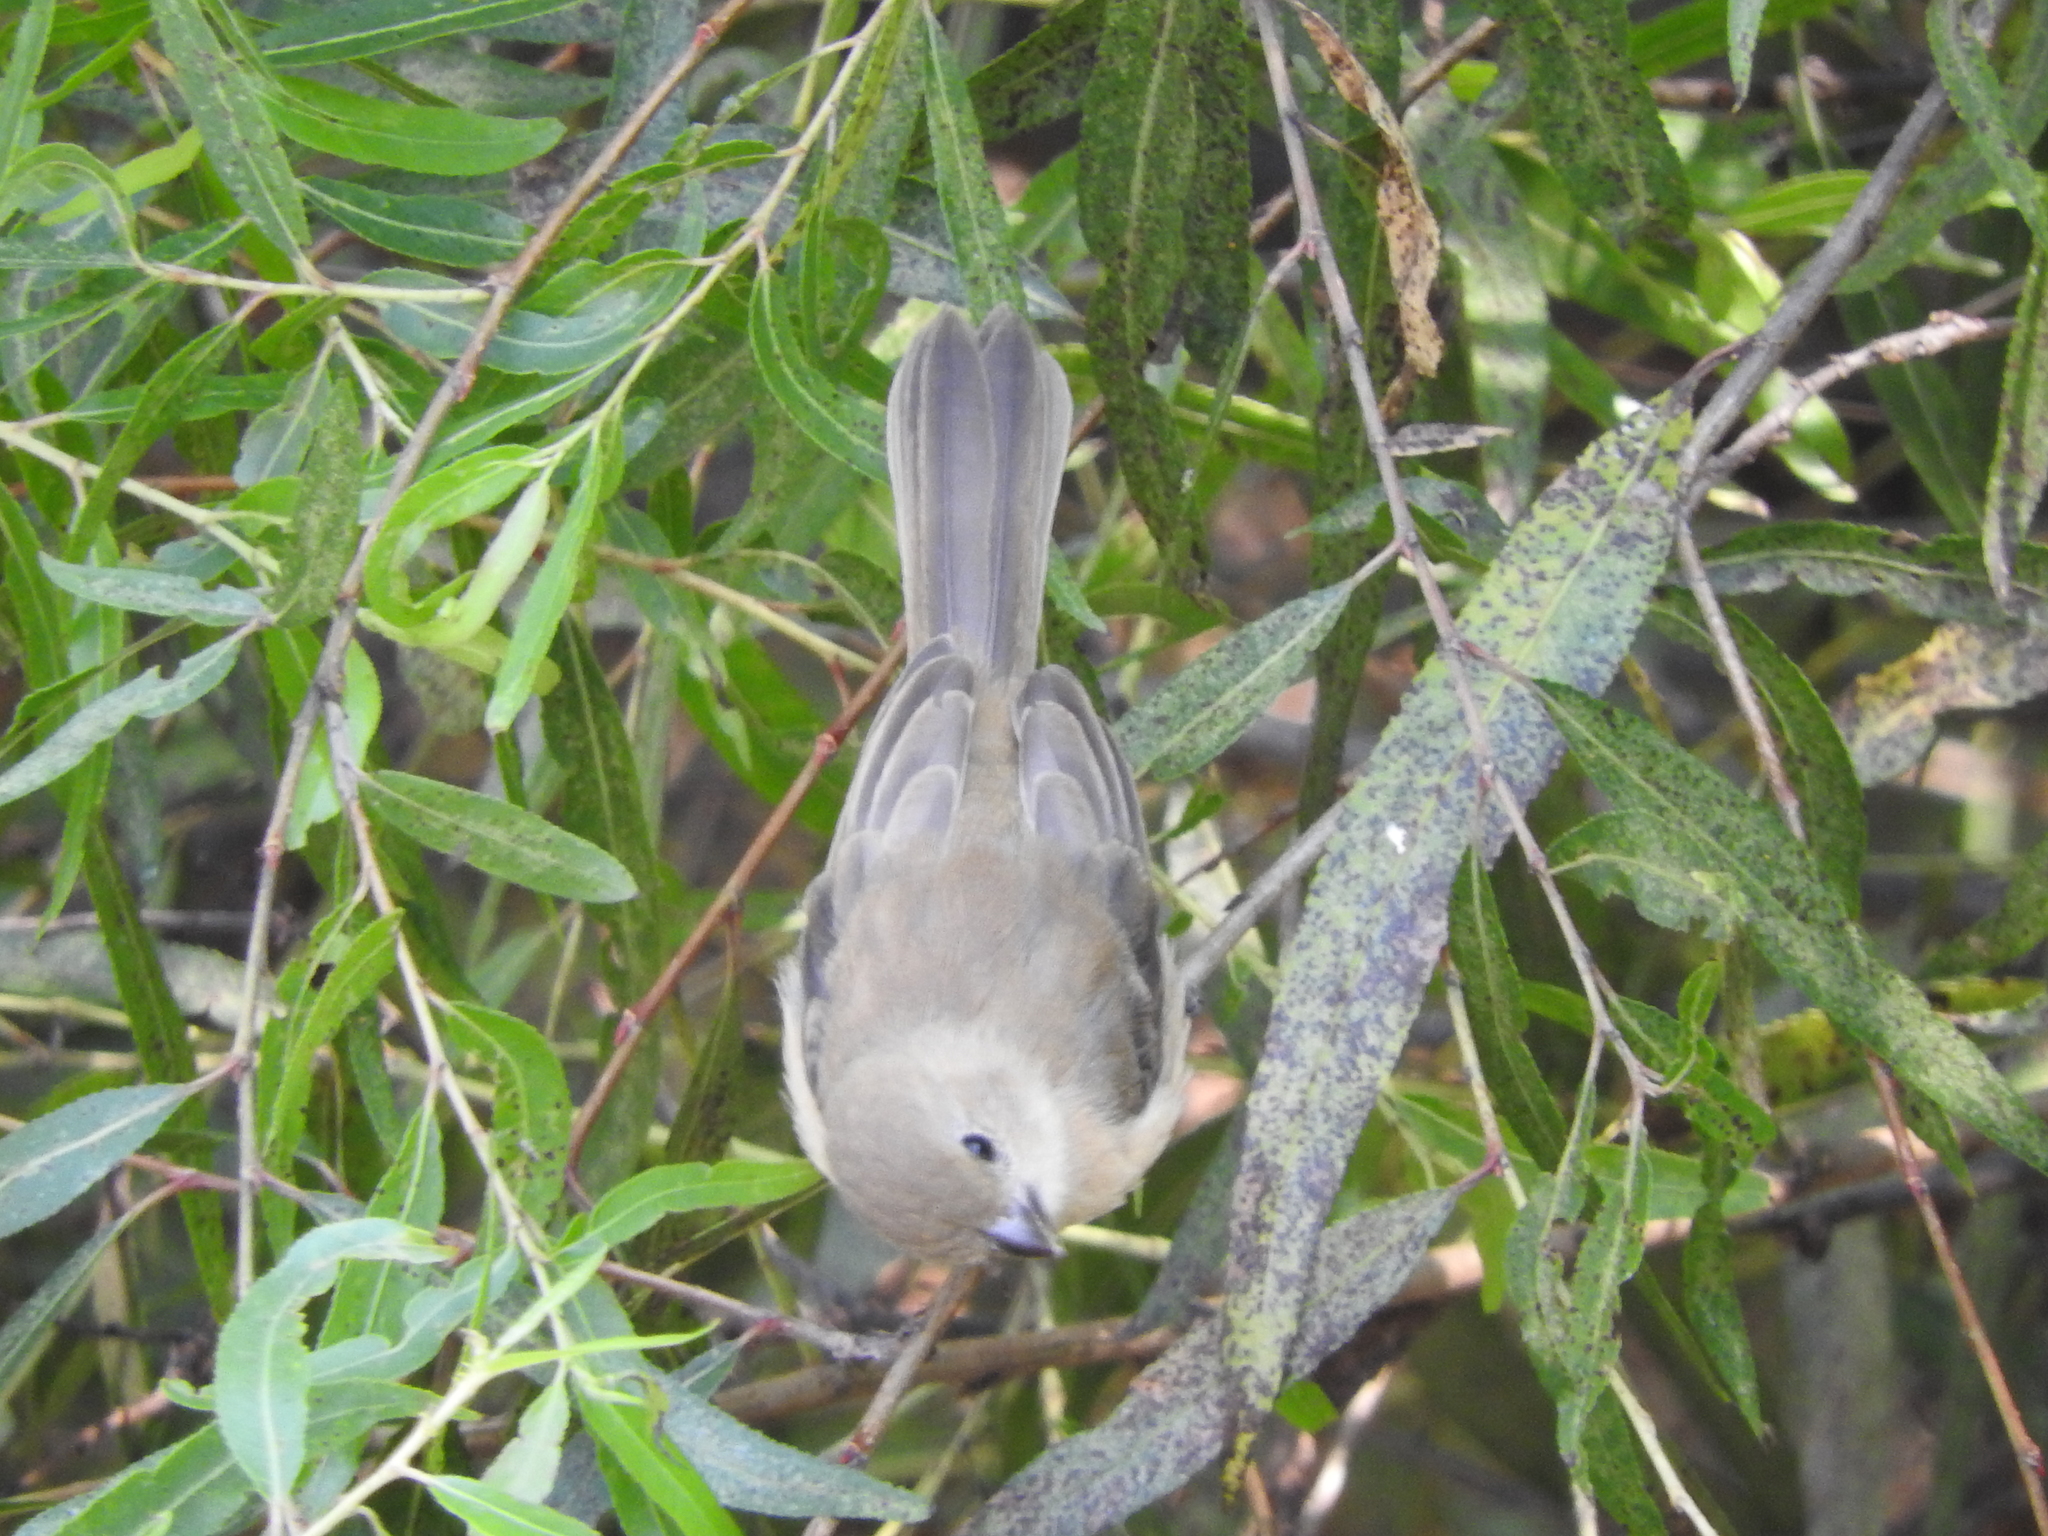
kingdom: Animalia
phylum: Chordata
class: Aves
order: Passeriformes
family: Thraupidae
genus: Sporophila
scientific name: Sporophila torqueola
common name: White-collared seedeater
